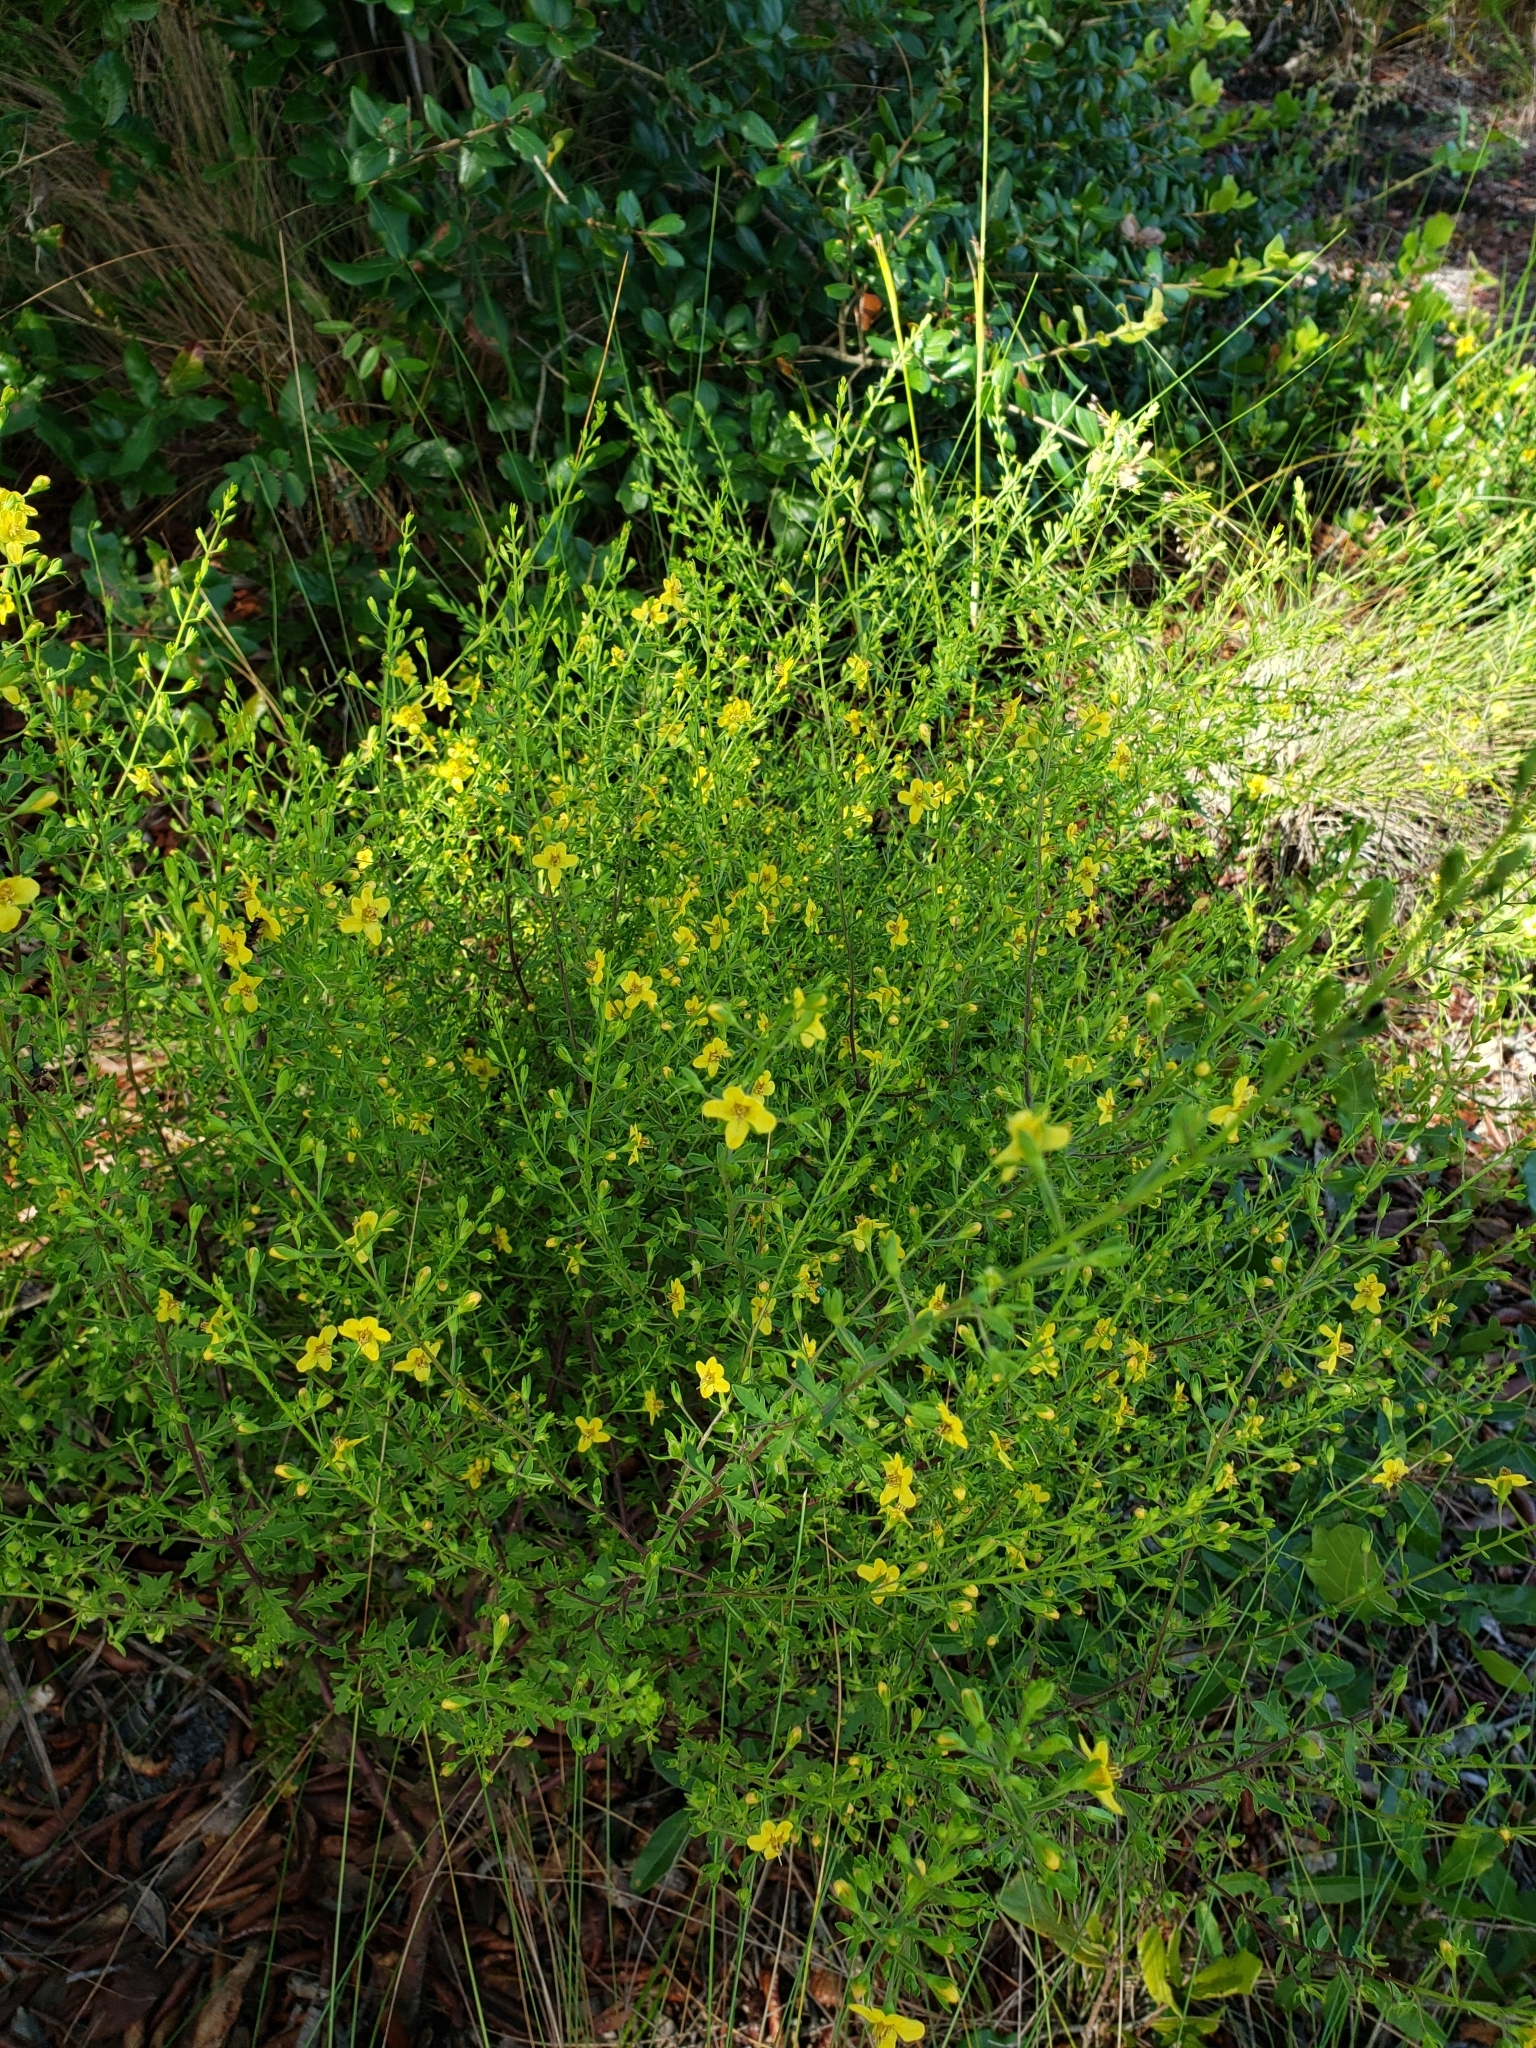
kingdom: Plantae
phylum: Tracheophyta
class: Magnoliopsida
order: Lamiales
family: Orobanchaceae
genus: Seymeria
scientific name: Seymeria pectinata
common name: Piedmont black-senna
